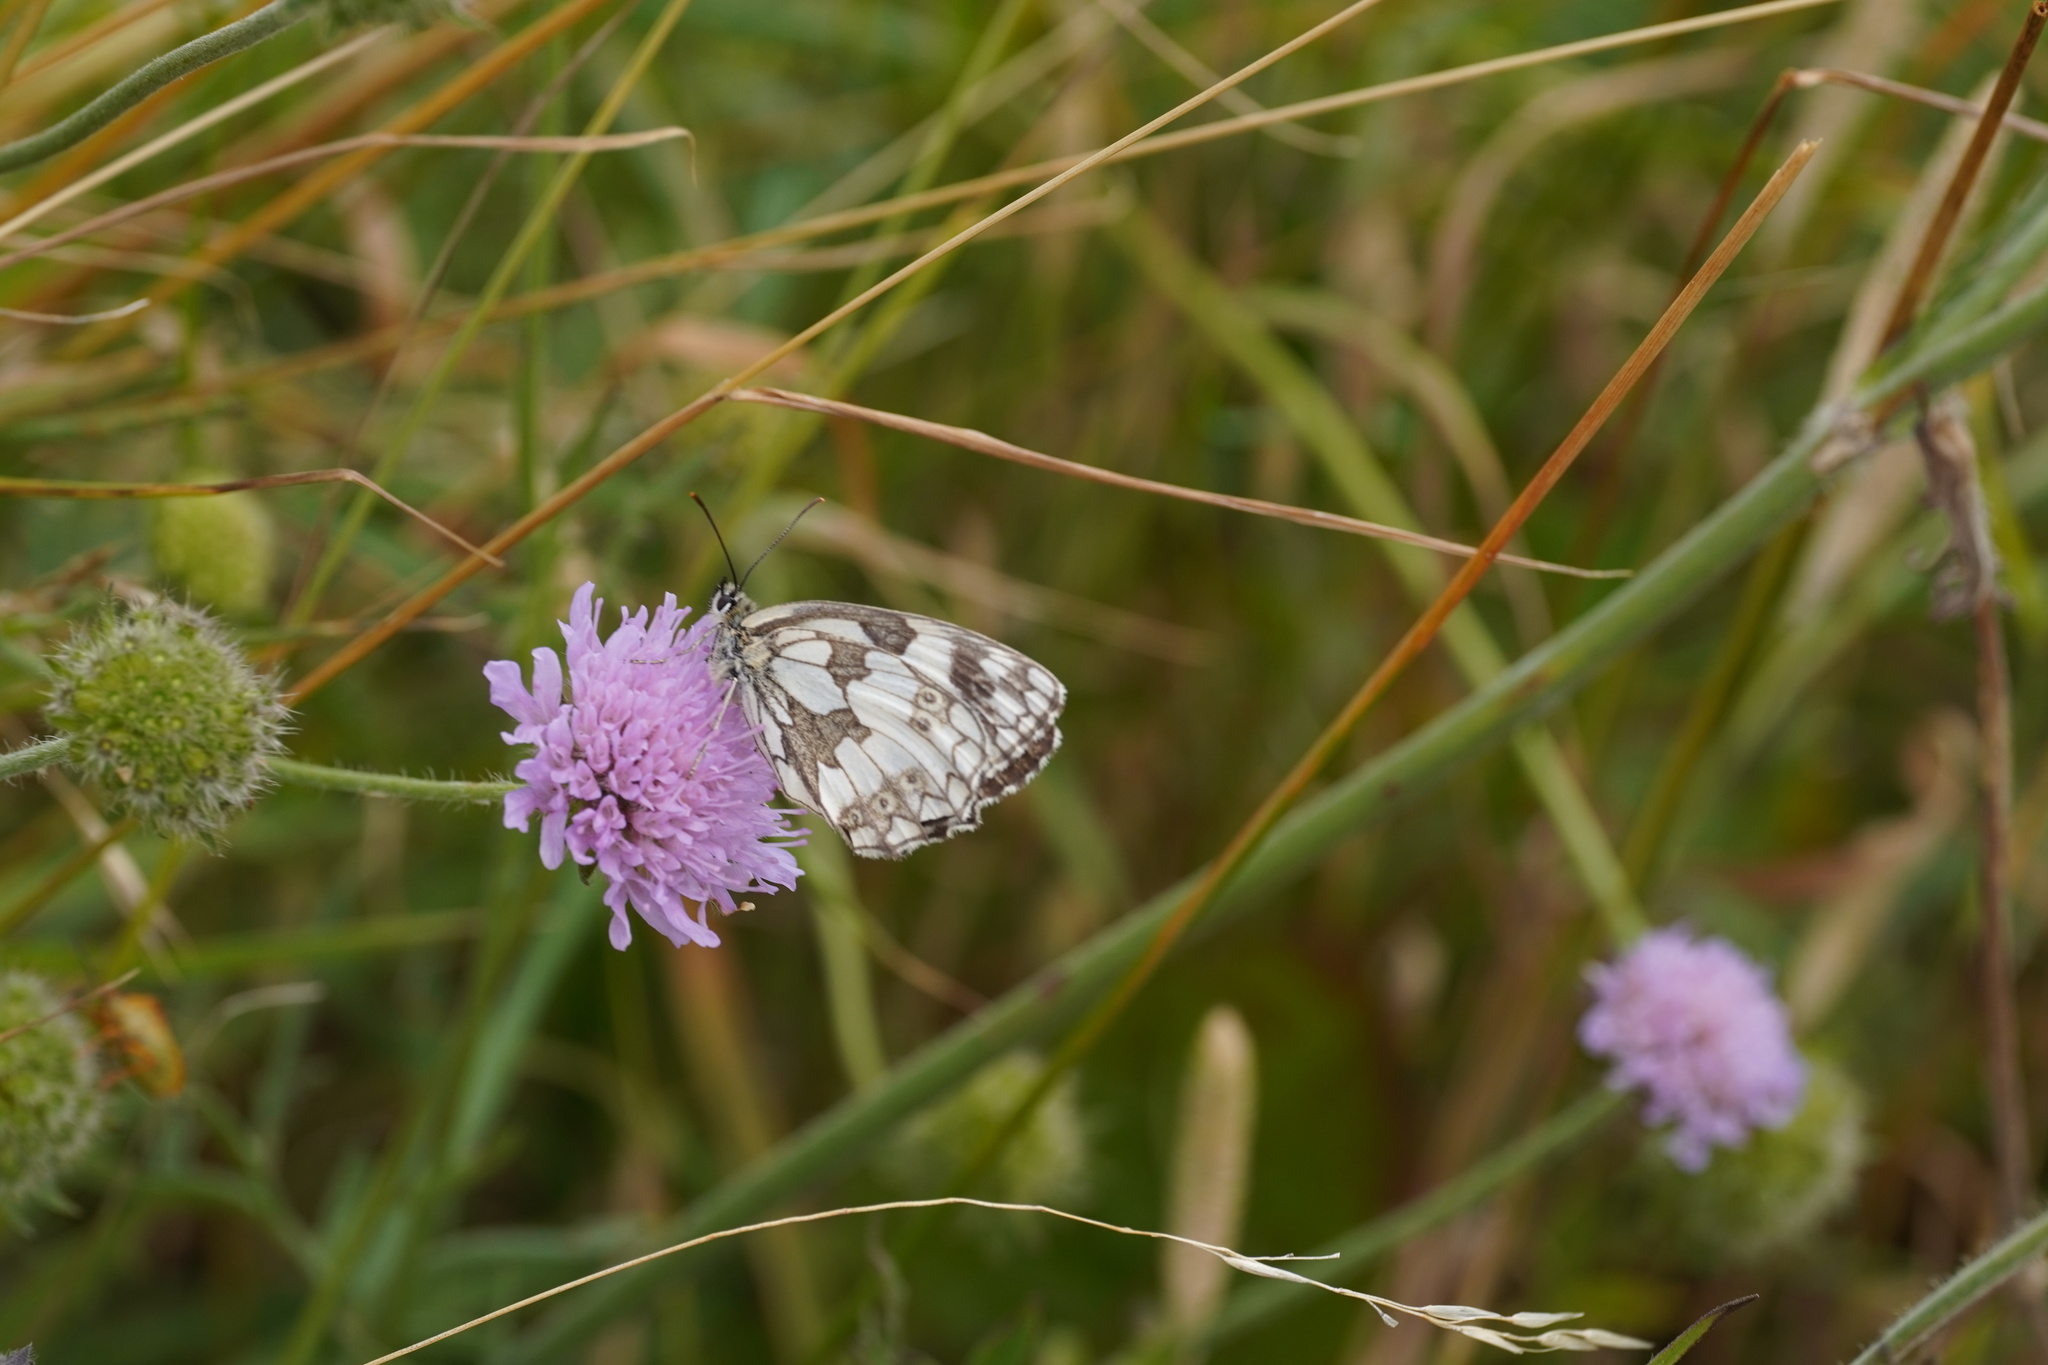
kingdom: Animalia
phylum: Arthropoda
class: Insecta
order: Lepidoptera
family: Nymphalidae
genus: Melanargia
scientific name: Melanargia galathea
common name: Marbled white
